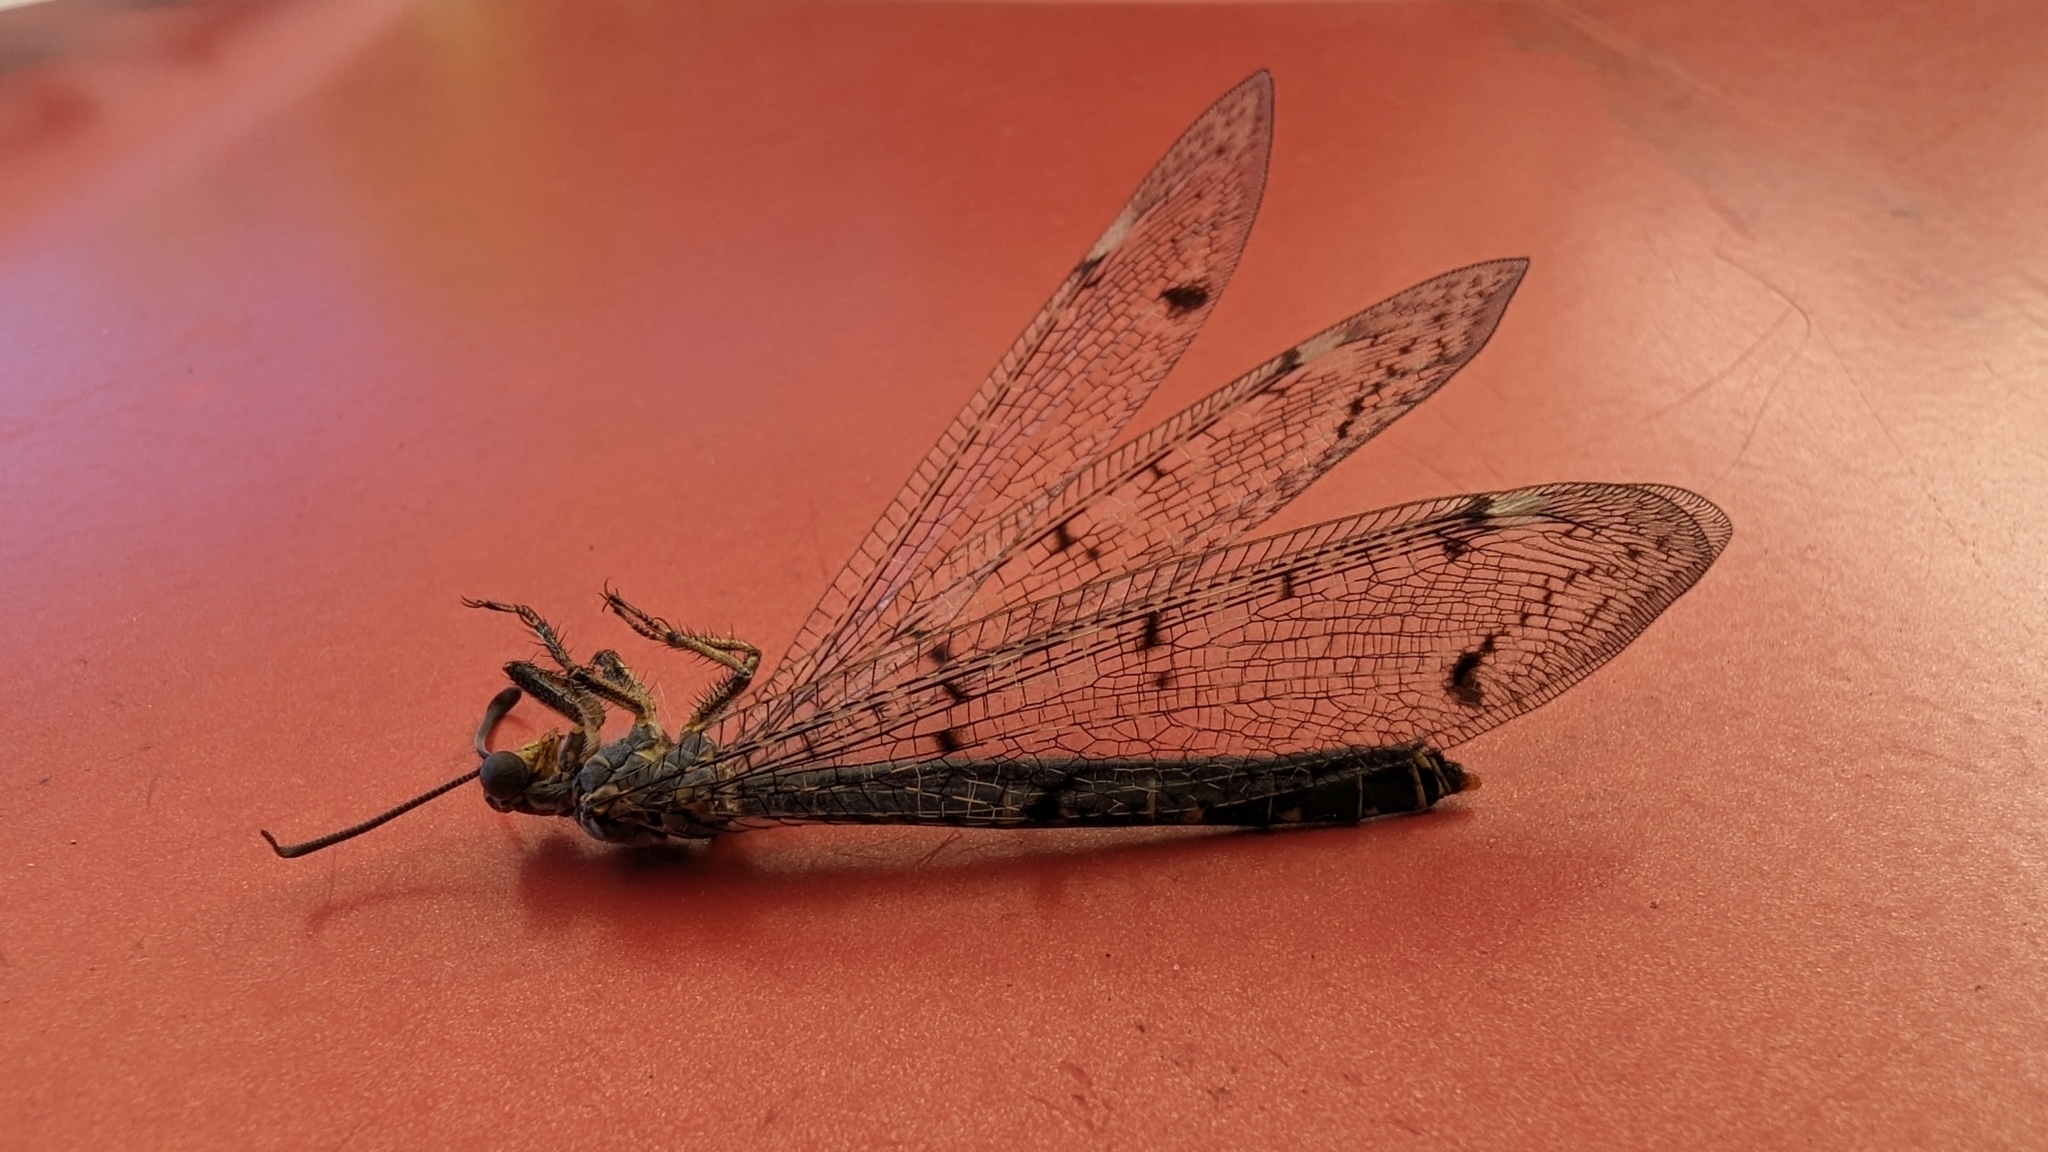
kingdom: Animalia
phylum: Arthropoda
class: Insecta
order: Neuroptera
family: Myrmeleontidae
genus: Distoleon
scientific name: Distoleon tetragrammicus
